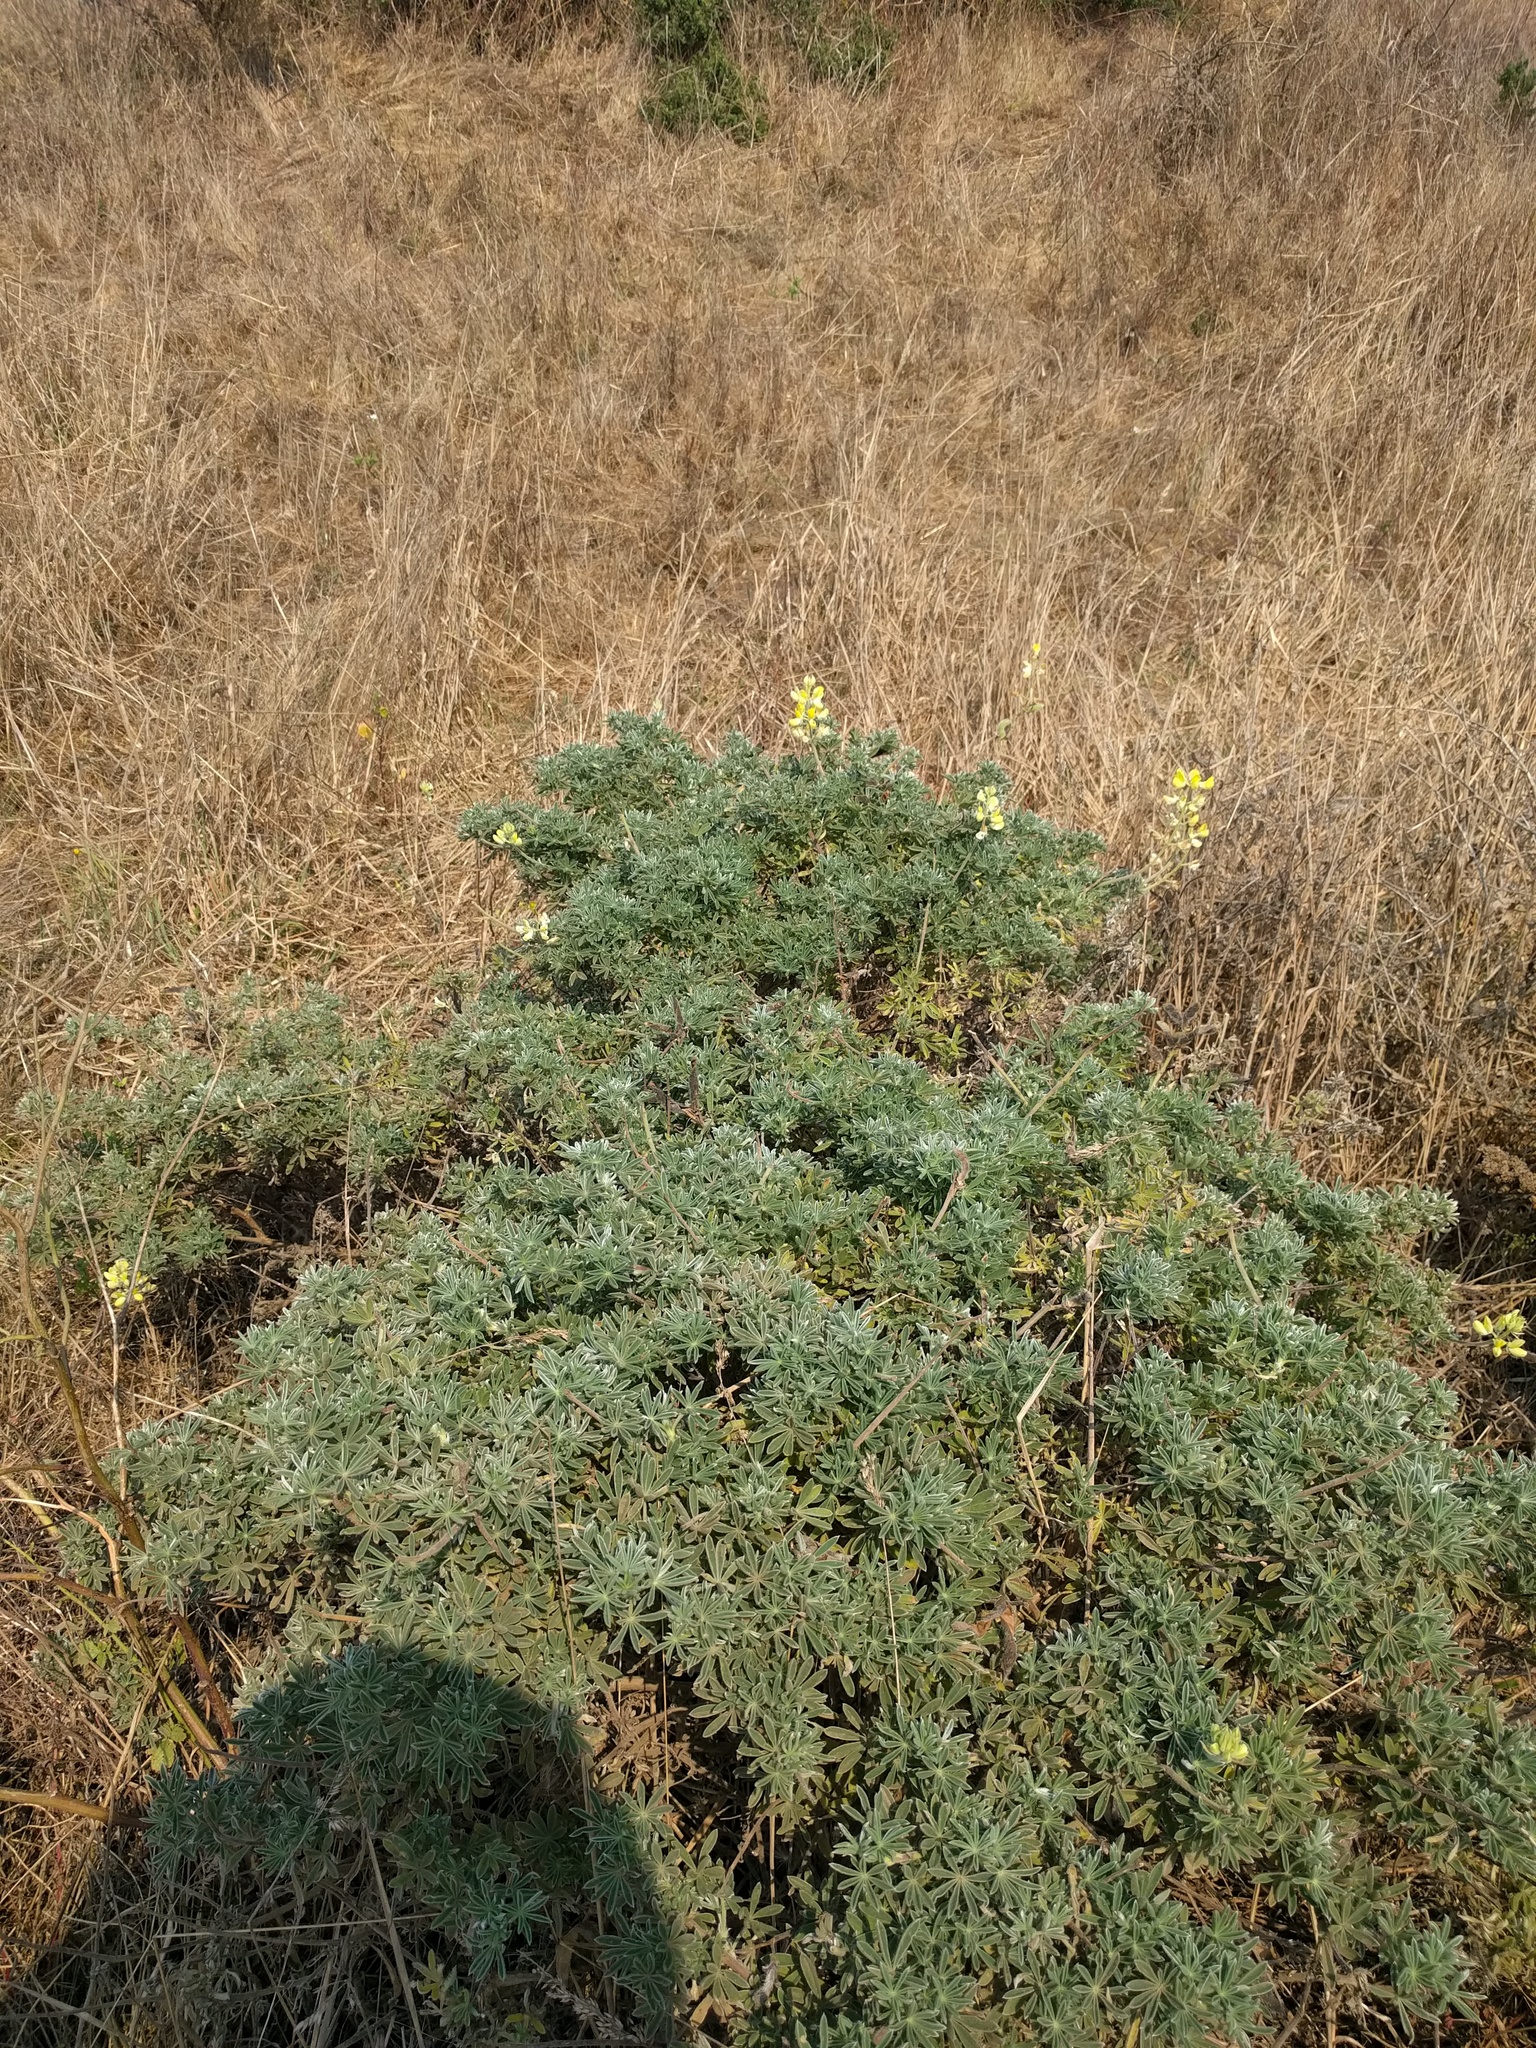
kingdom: Plantae
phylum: Tracheophyta
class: Magnoliopsida
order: Fabales
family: Fabaceae
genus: Lupinus
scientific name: Lupinus arboreus
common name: Yellow bush lupine
